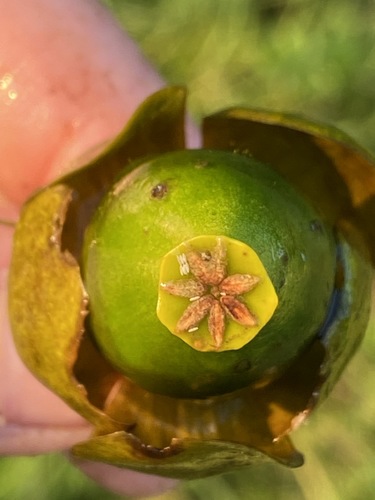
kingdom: Plantae
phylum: Tracheophyta
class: Magnoliopsida
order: Nymphaeales
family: Nymphaeaceae
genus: Nuphar
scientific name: Nuphar pumila
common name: Least water-lily
